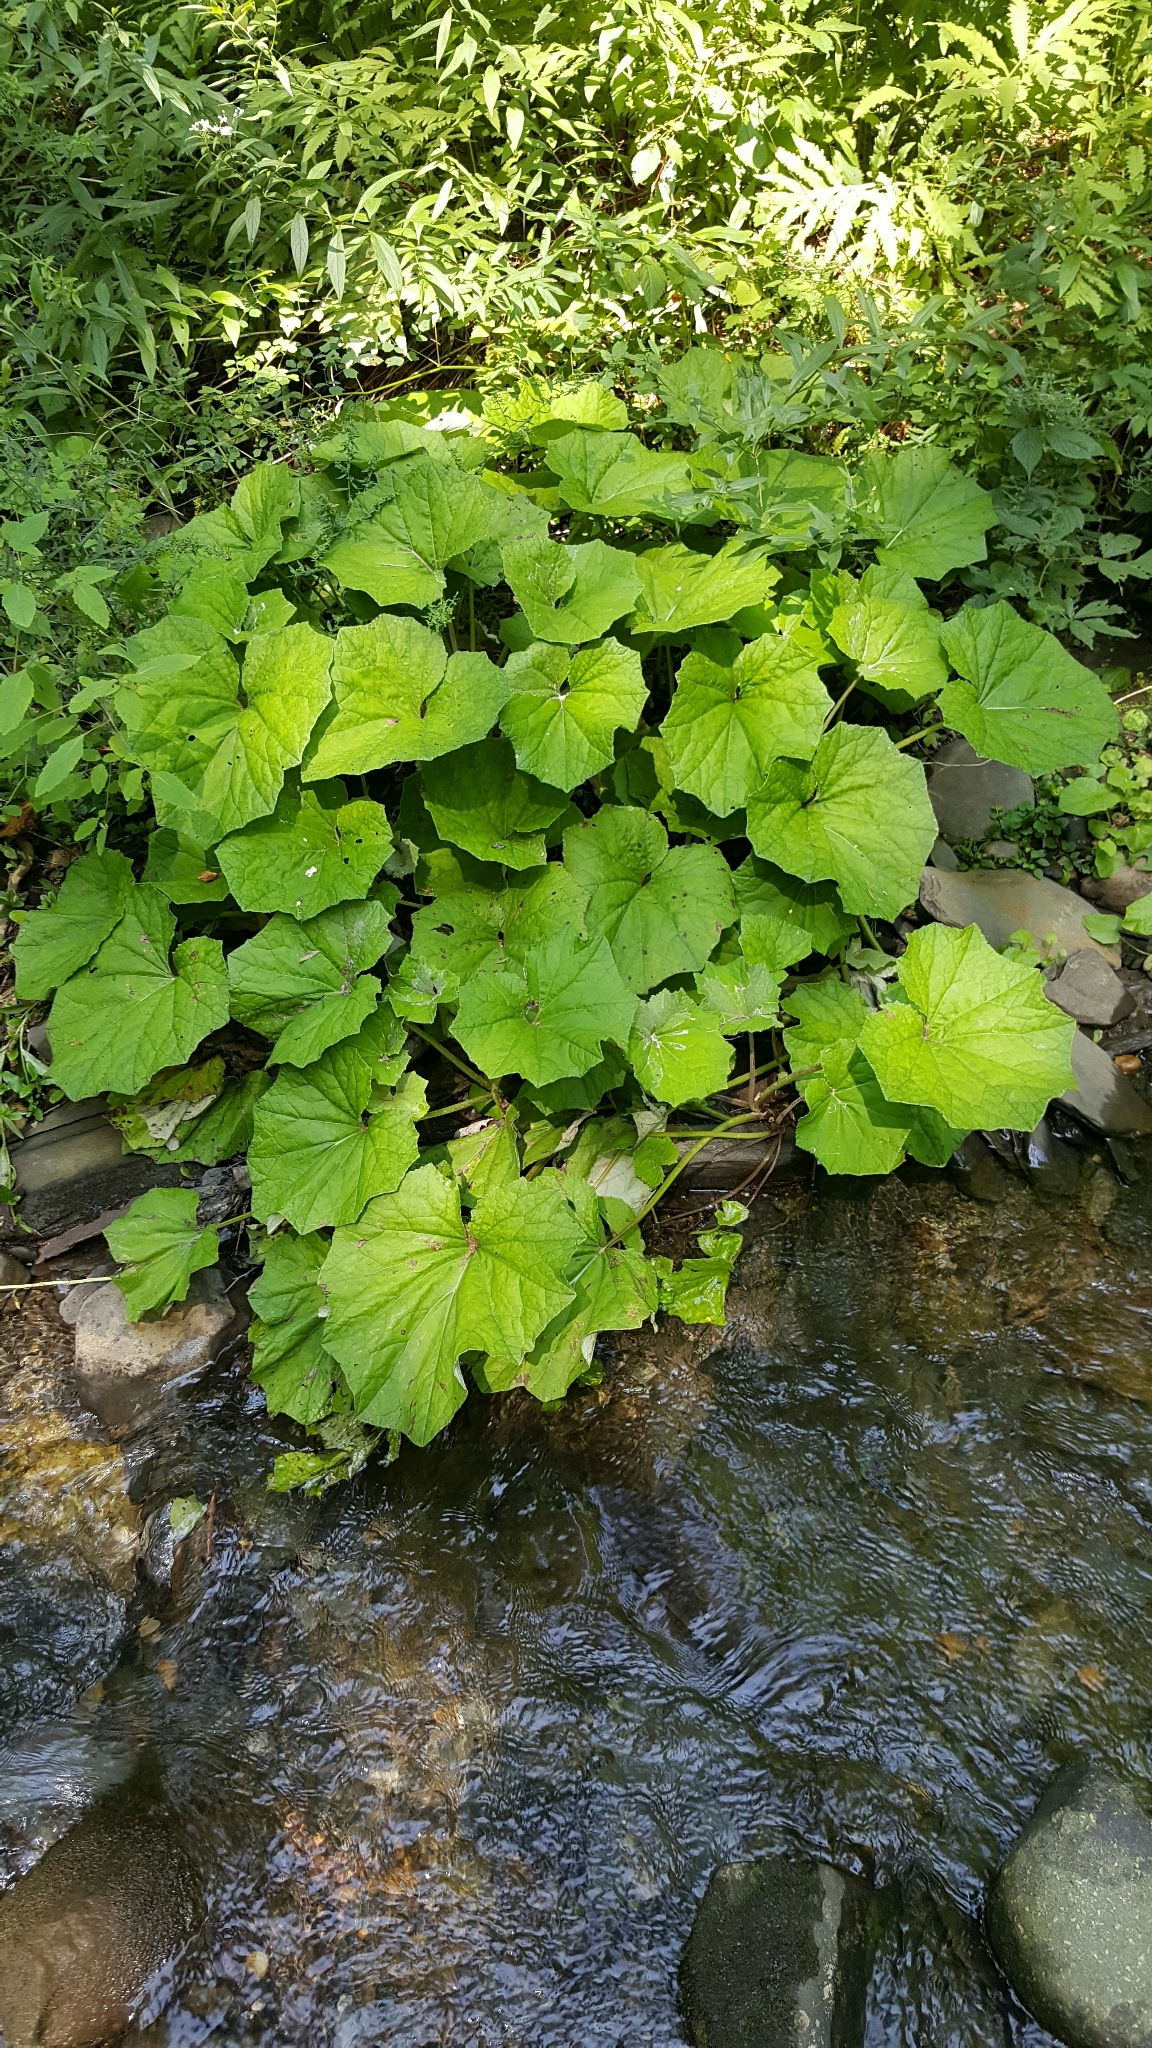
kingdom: Plantae
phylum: Tracheophyta
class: Magnoliopsida
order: Asterales
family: Asteraceae
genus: Tussilago
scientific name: Tussilago farfara
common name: Coltsfoot
